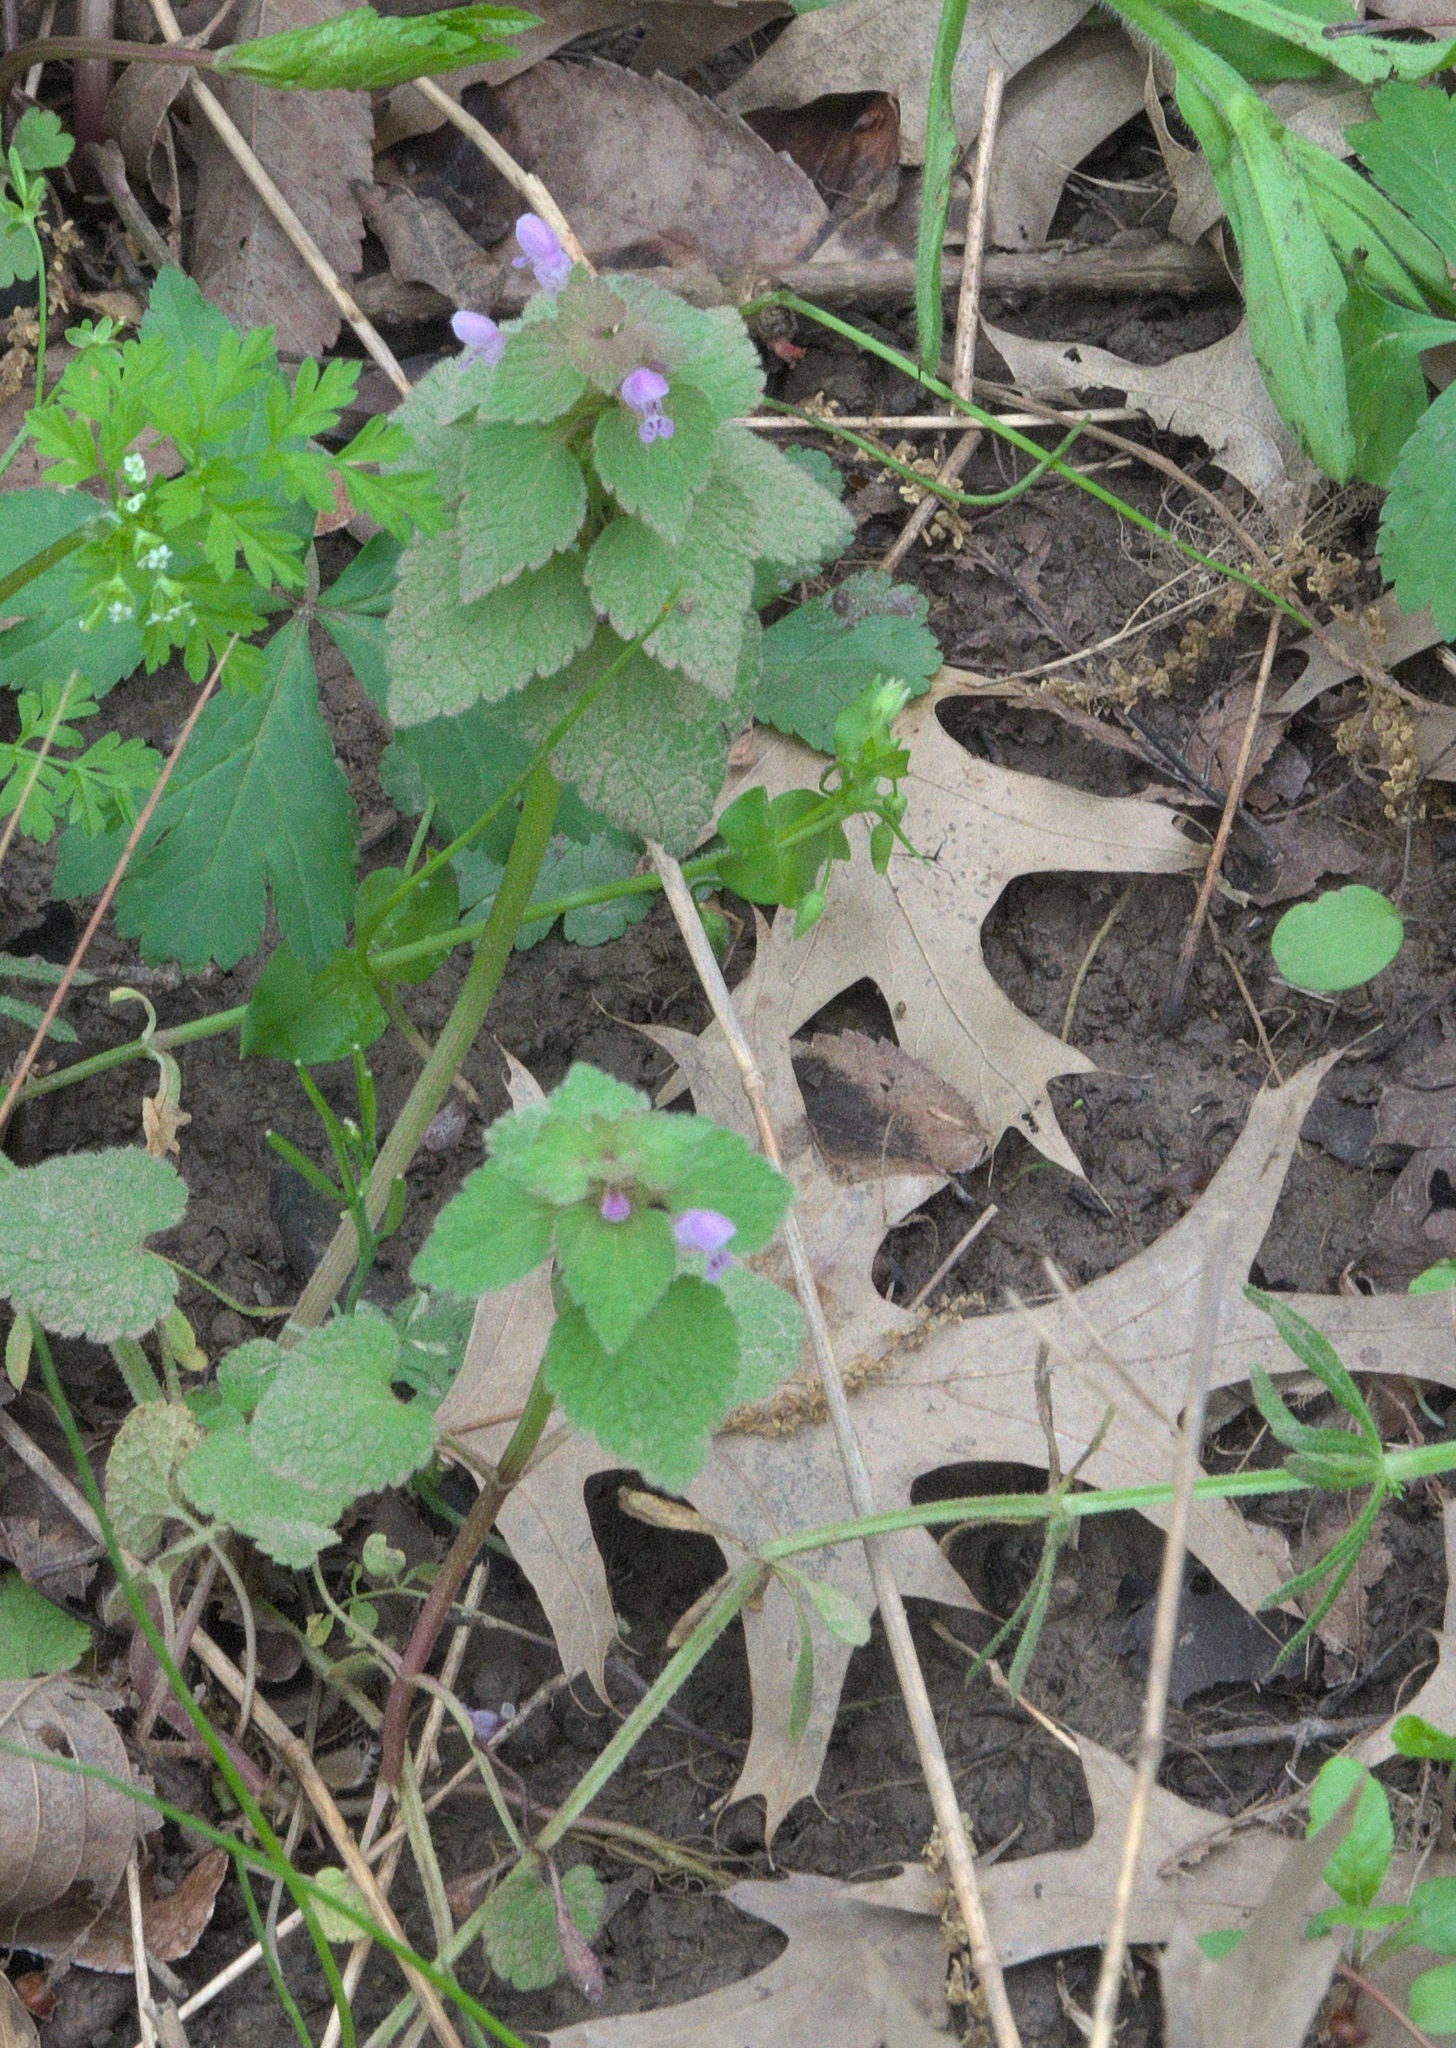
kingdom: Plantae
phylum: Tracheophyta
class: Magnoliopsida
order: Lamiales
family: Lamiaceae
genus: Lamium
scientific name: Lamium purpureum
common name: Red dead-nettle
